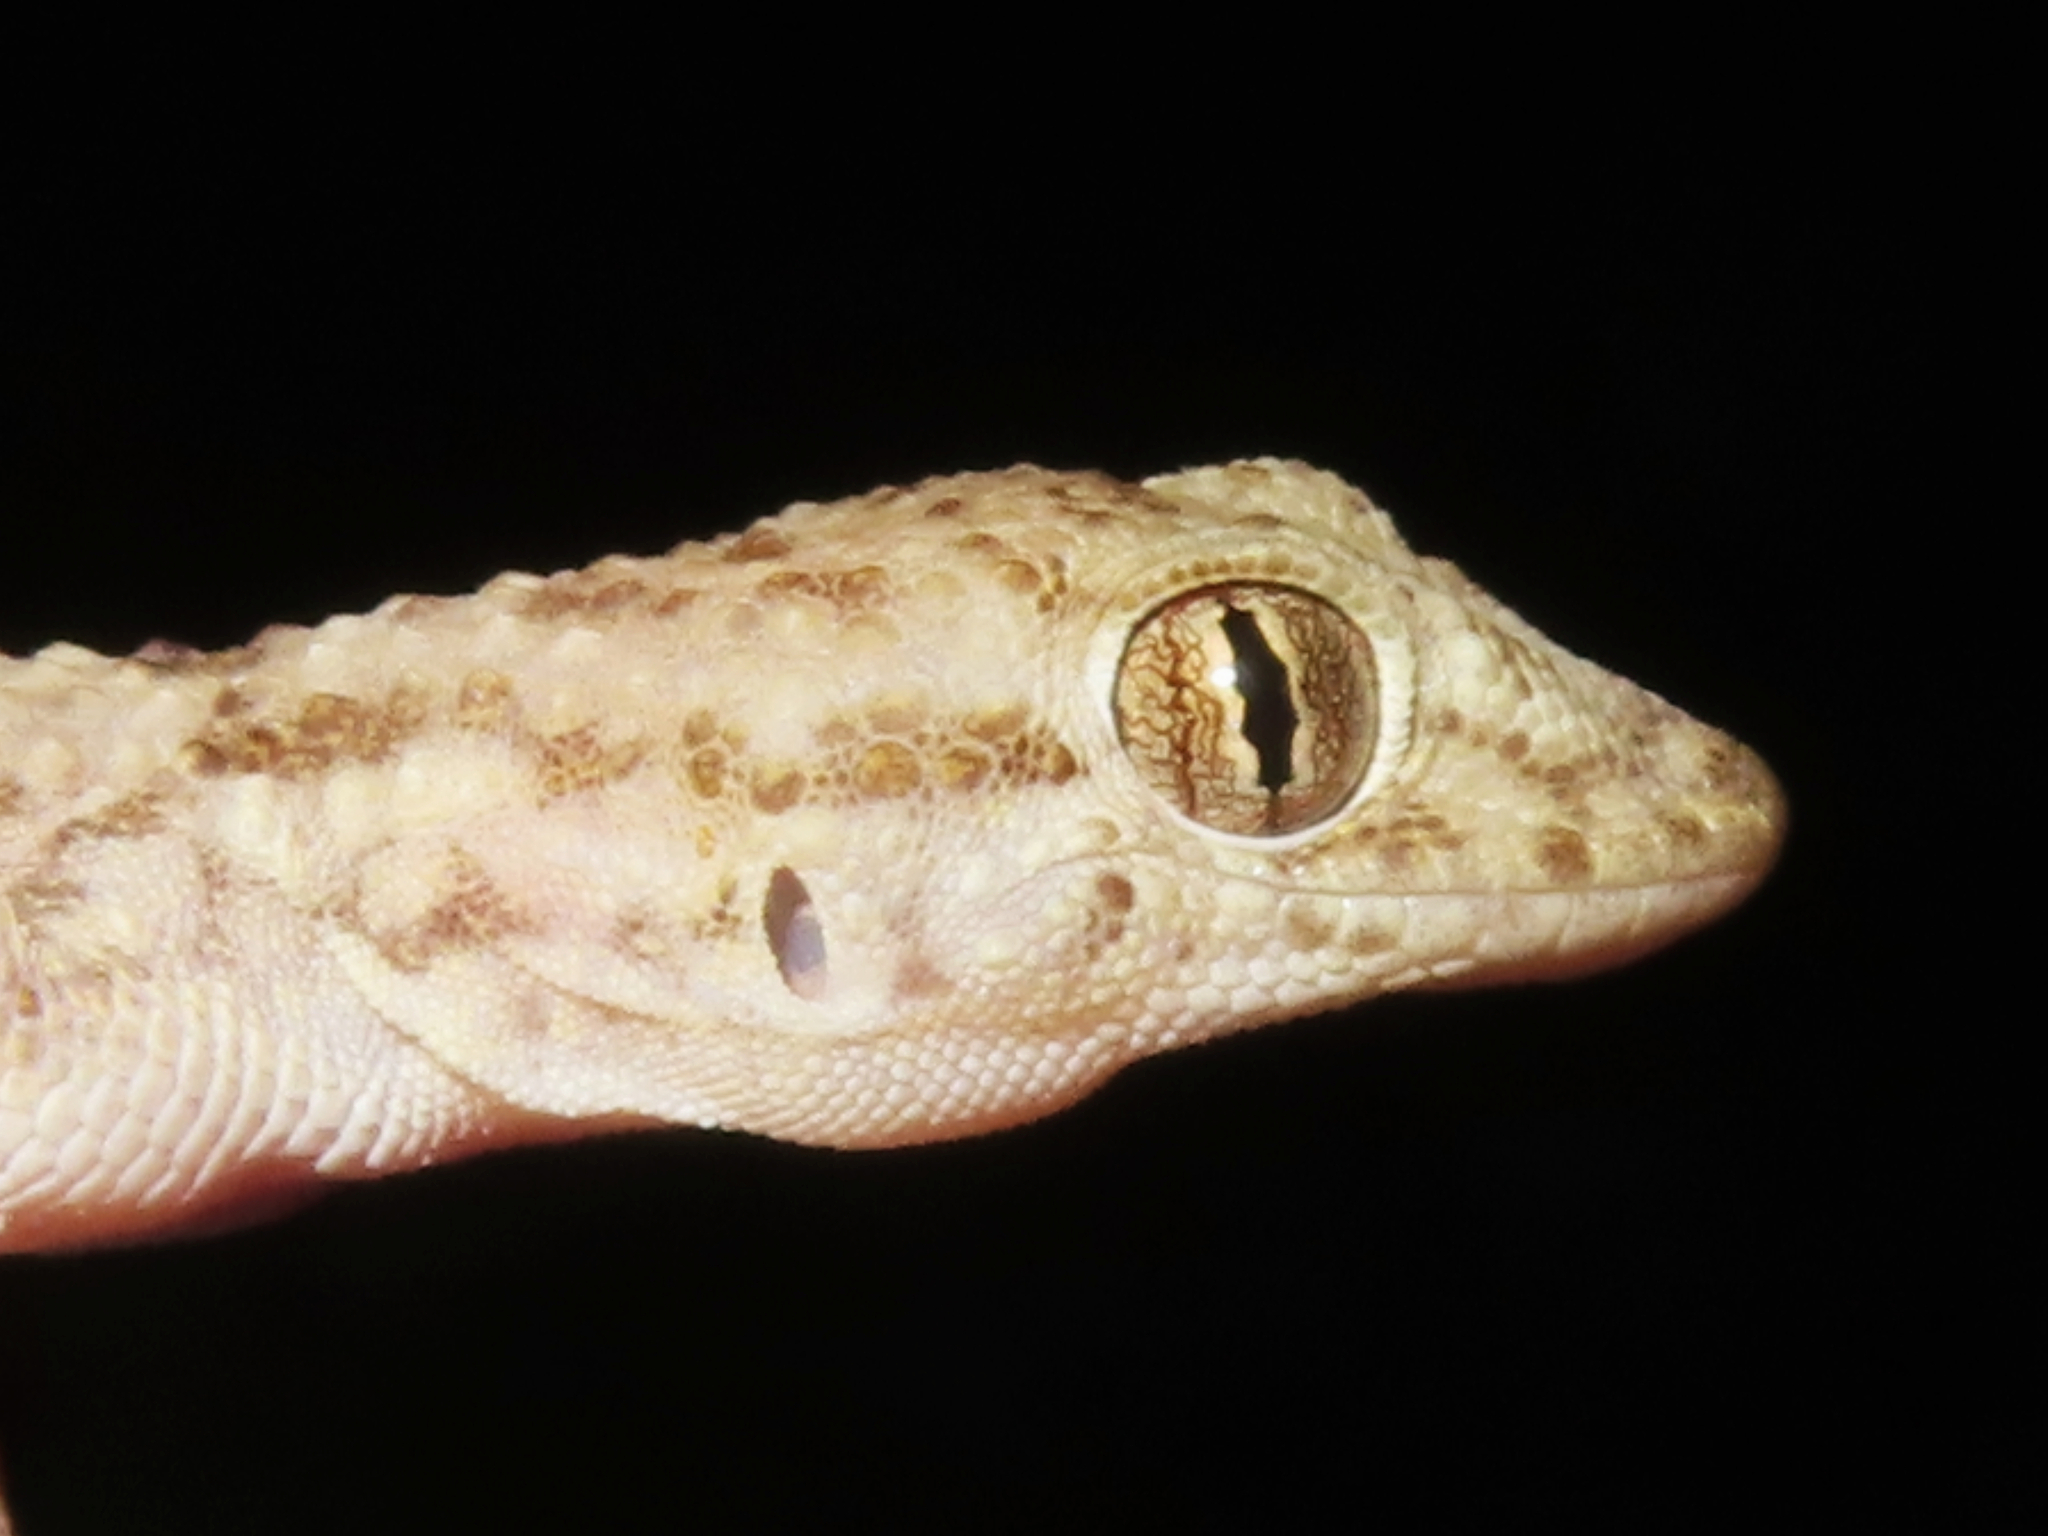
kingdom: Animalia
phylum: Chordata
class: Squamata
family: Gekkonidae
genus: Cyrtopodion
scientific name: Cyrtopodion scabrum
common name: Rough-tailed gecko
